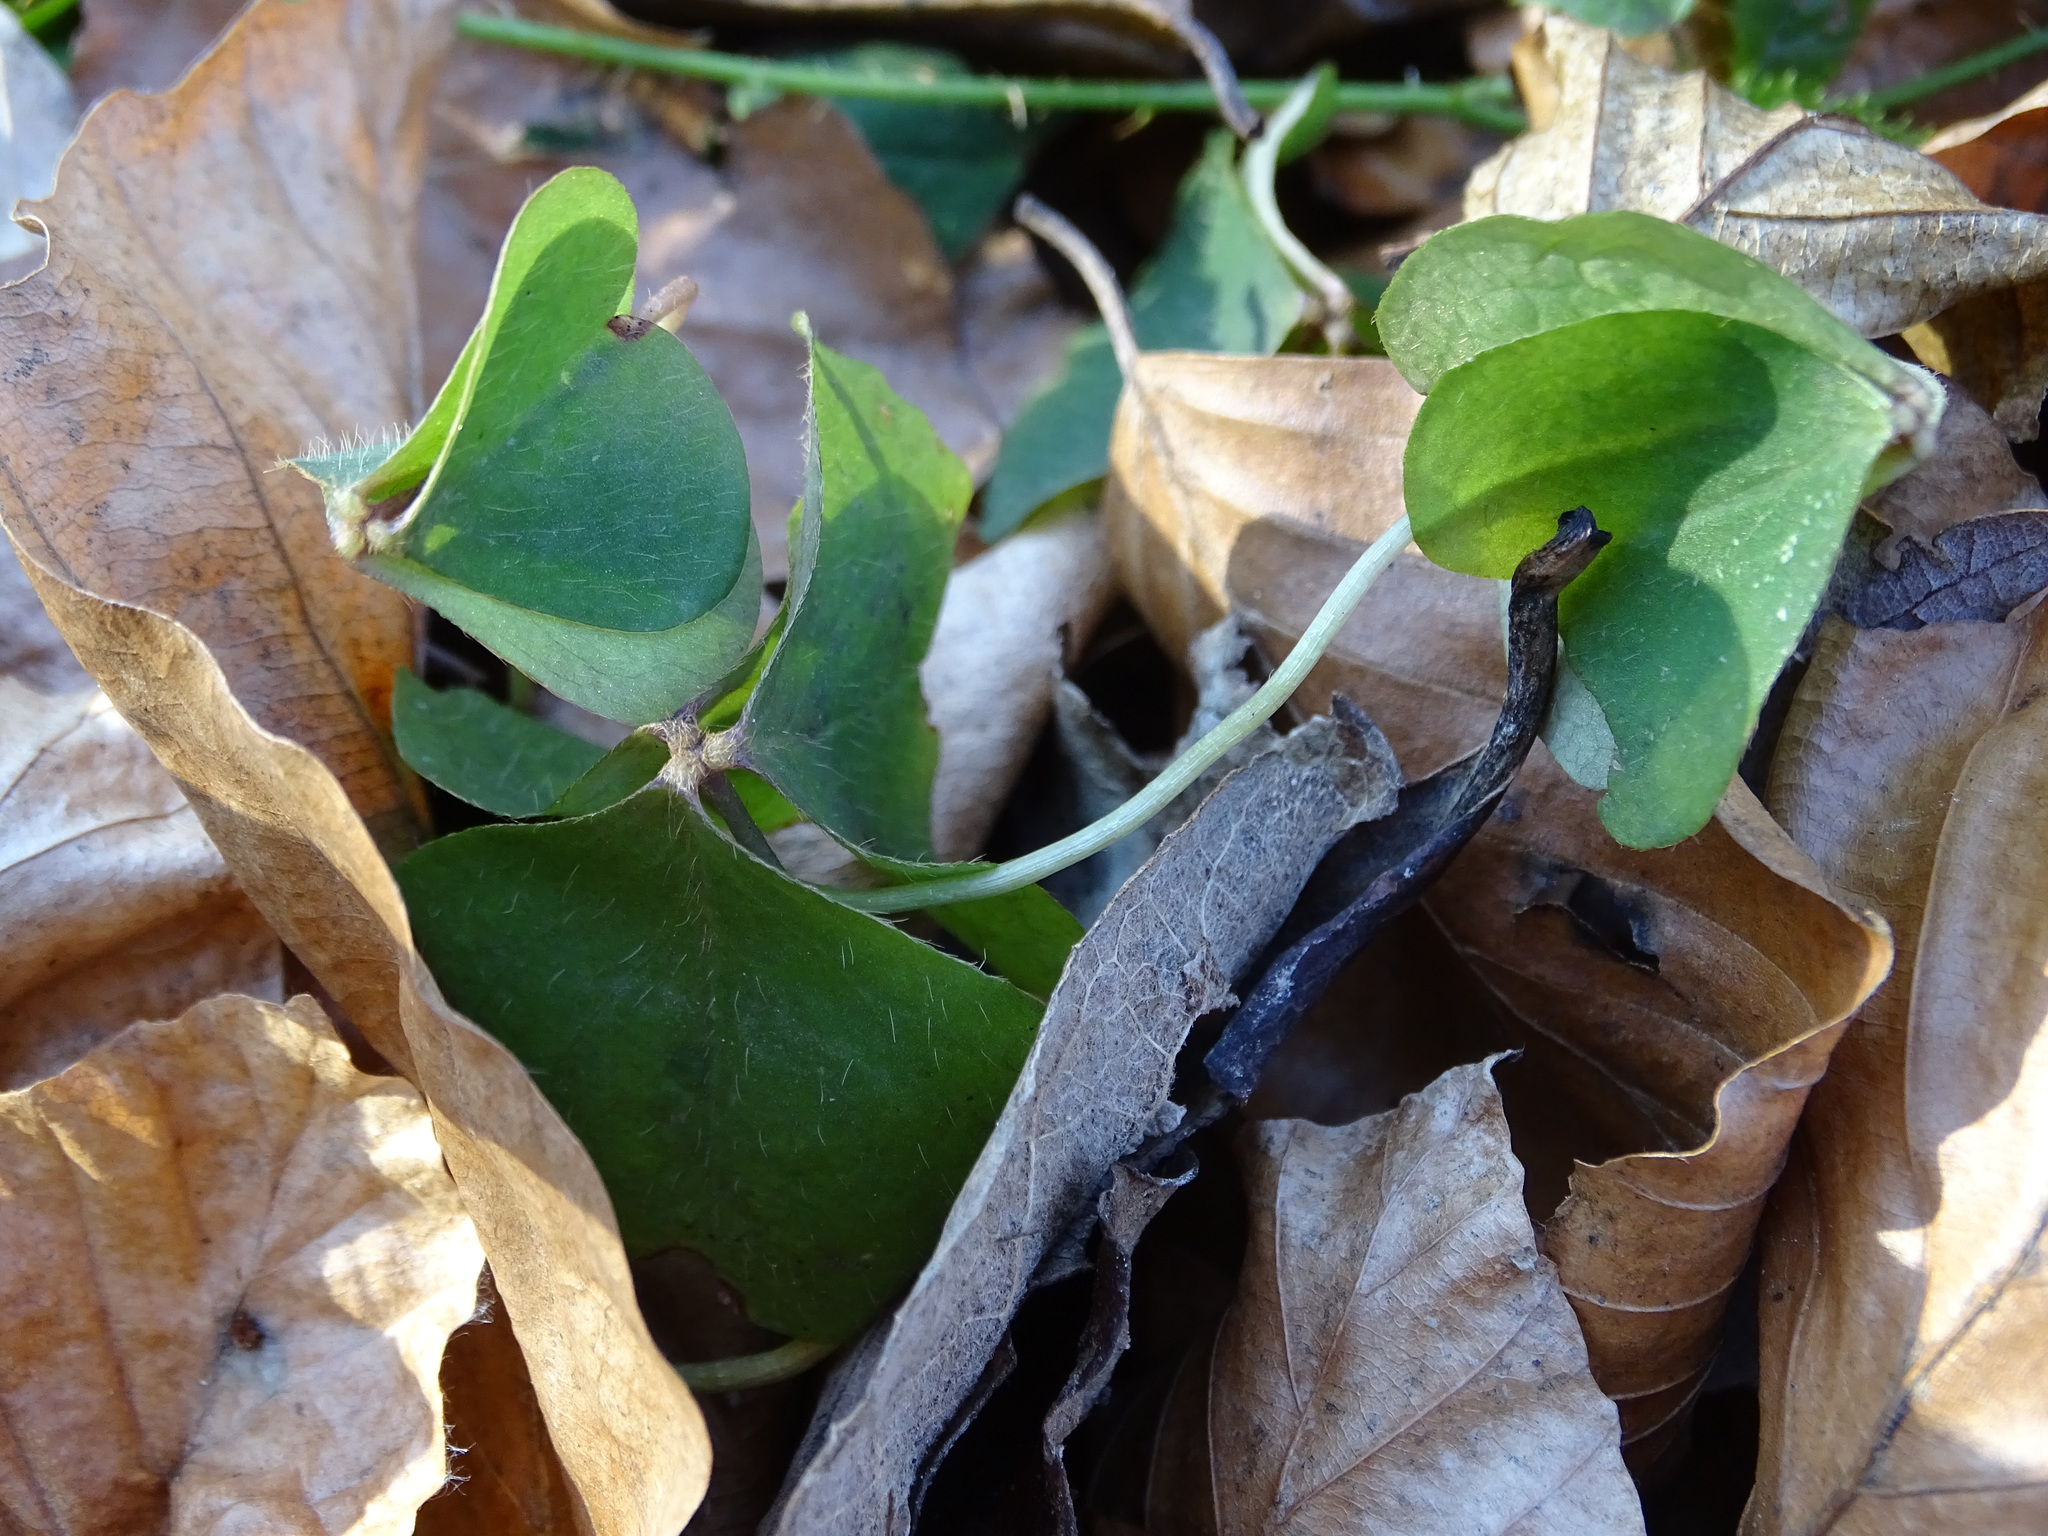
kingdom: Plantae
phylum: Tracheophyta
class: Magnoliopsida
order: Oxalidales
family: Oxalidaceae
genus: Oxalis
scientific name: Oxalis acetosella
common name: Wood-sorrel
